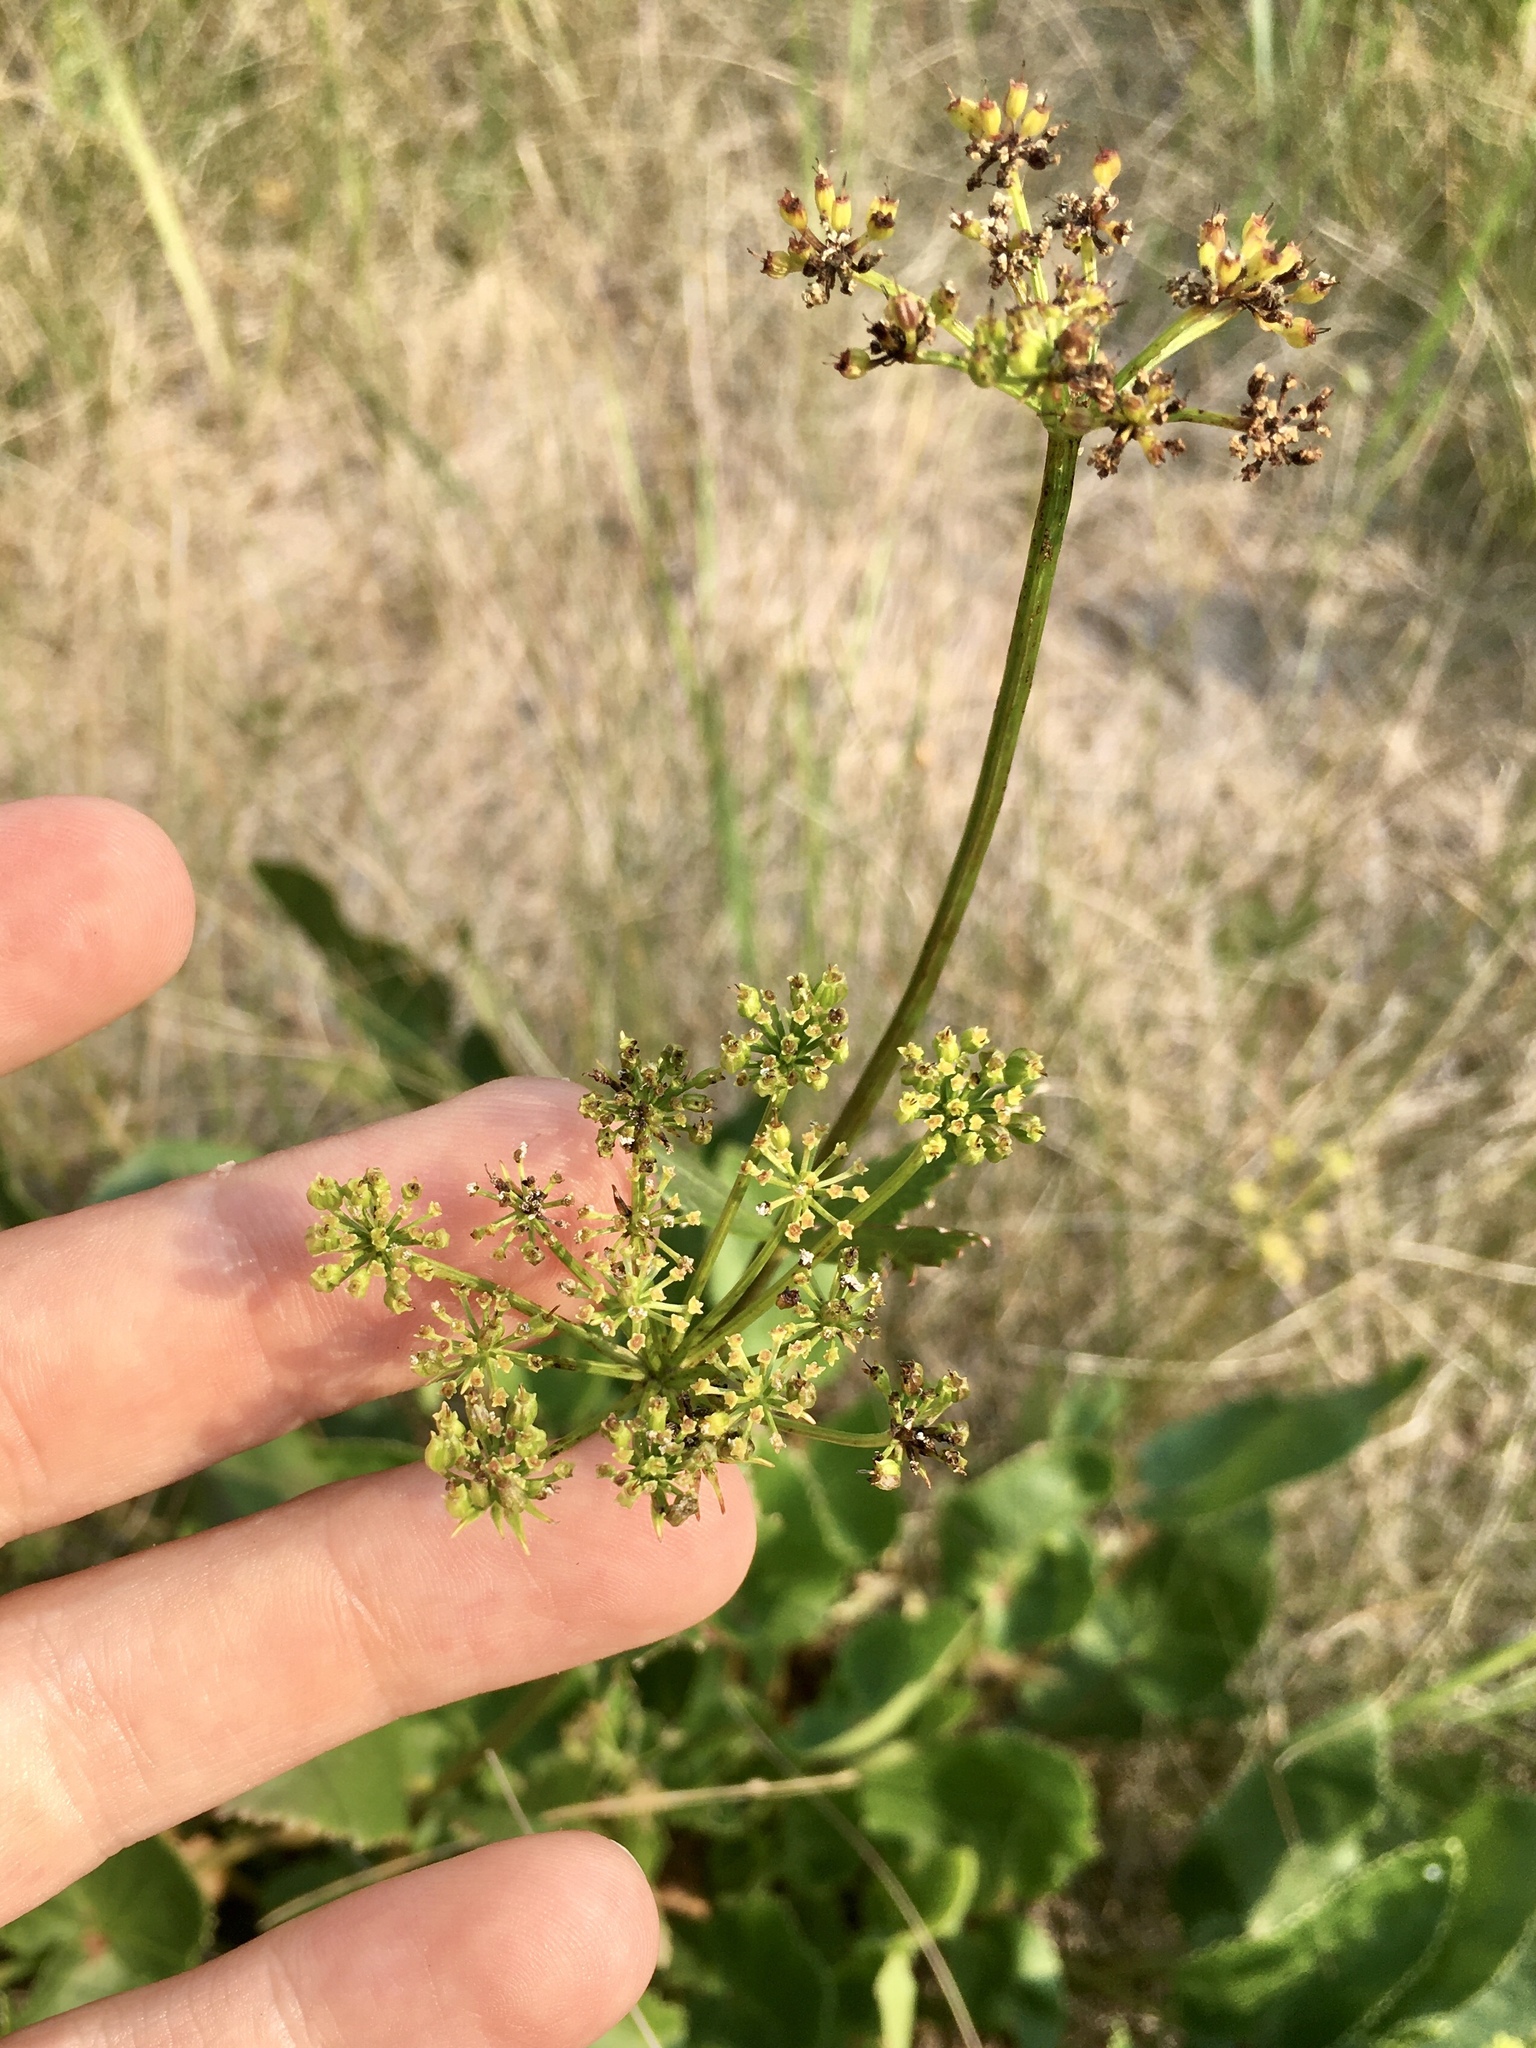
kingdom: Plantae
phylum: Tracheophyta
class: Magnoliopsida
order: Apiales
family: Apiaceae
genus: Zizia
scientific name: Zizia aptera
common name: Heart-leaved alexanders
